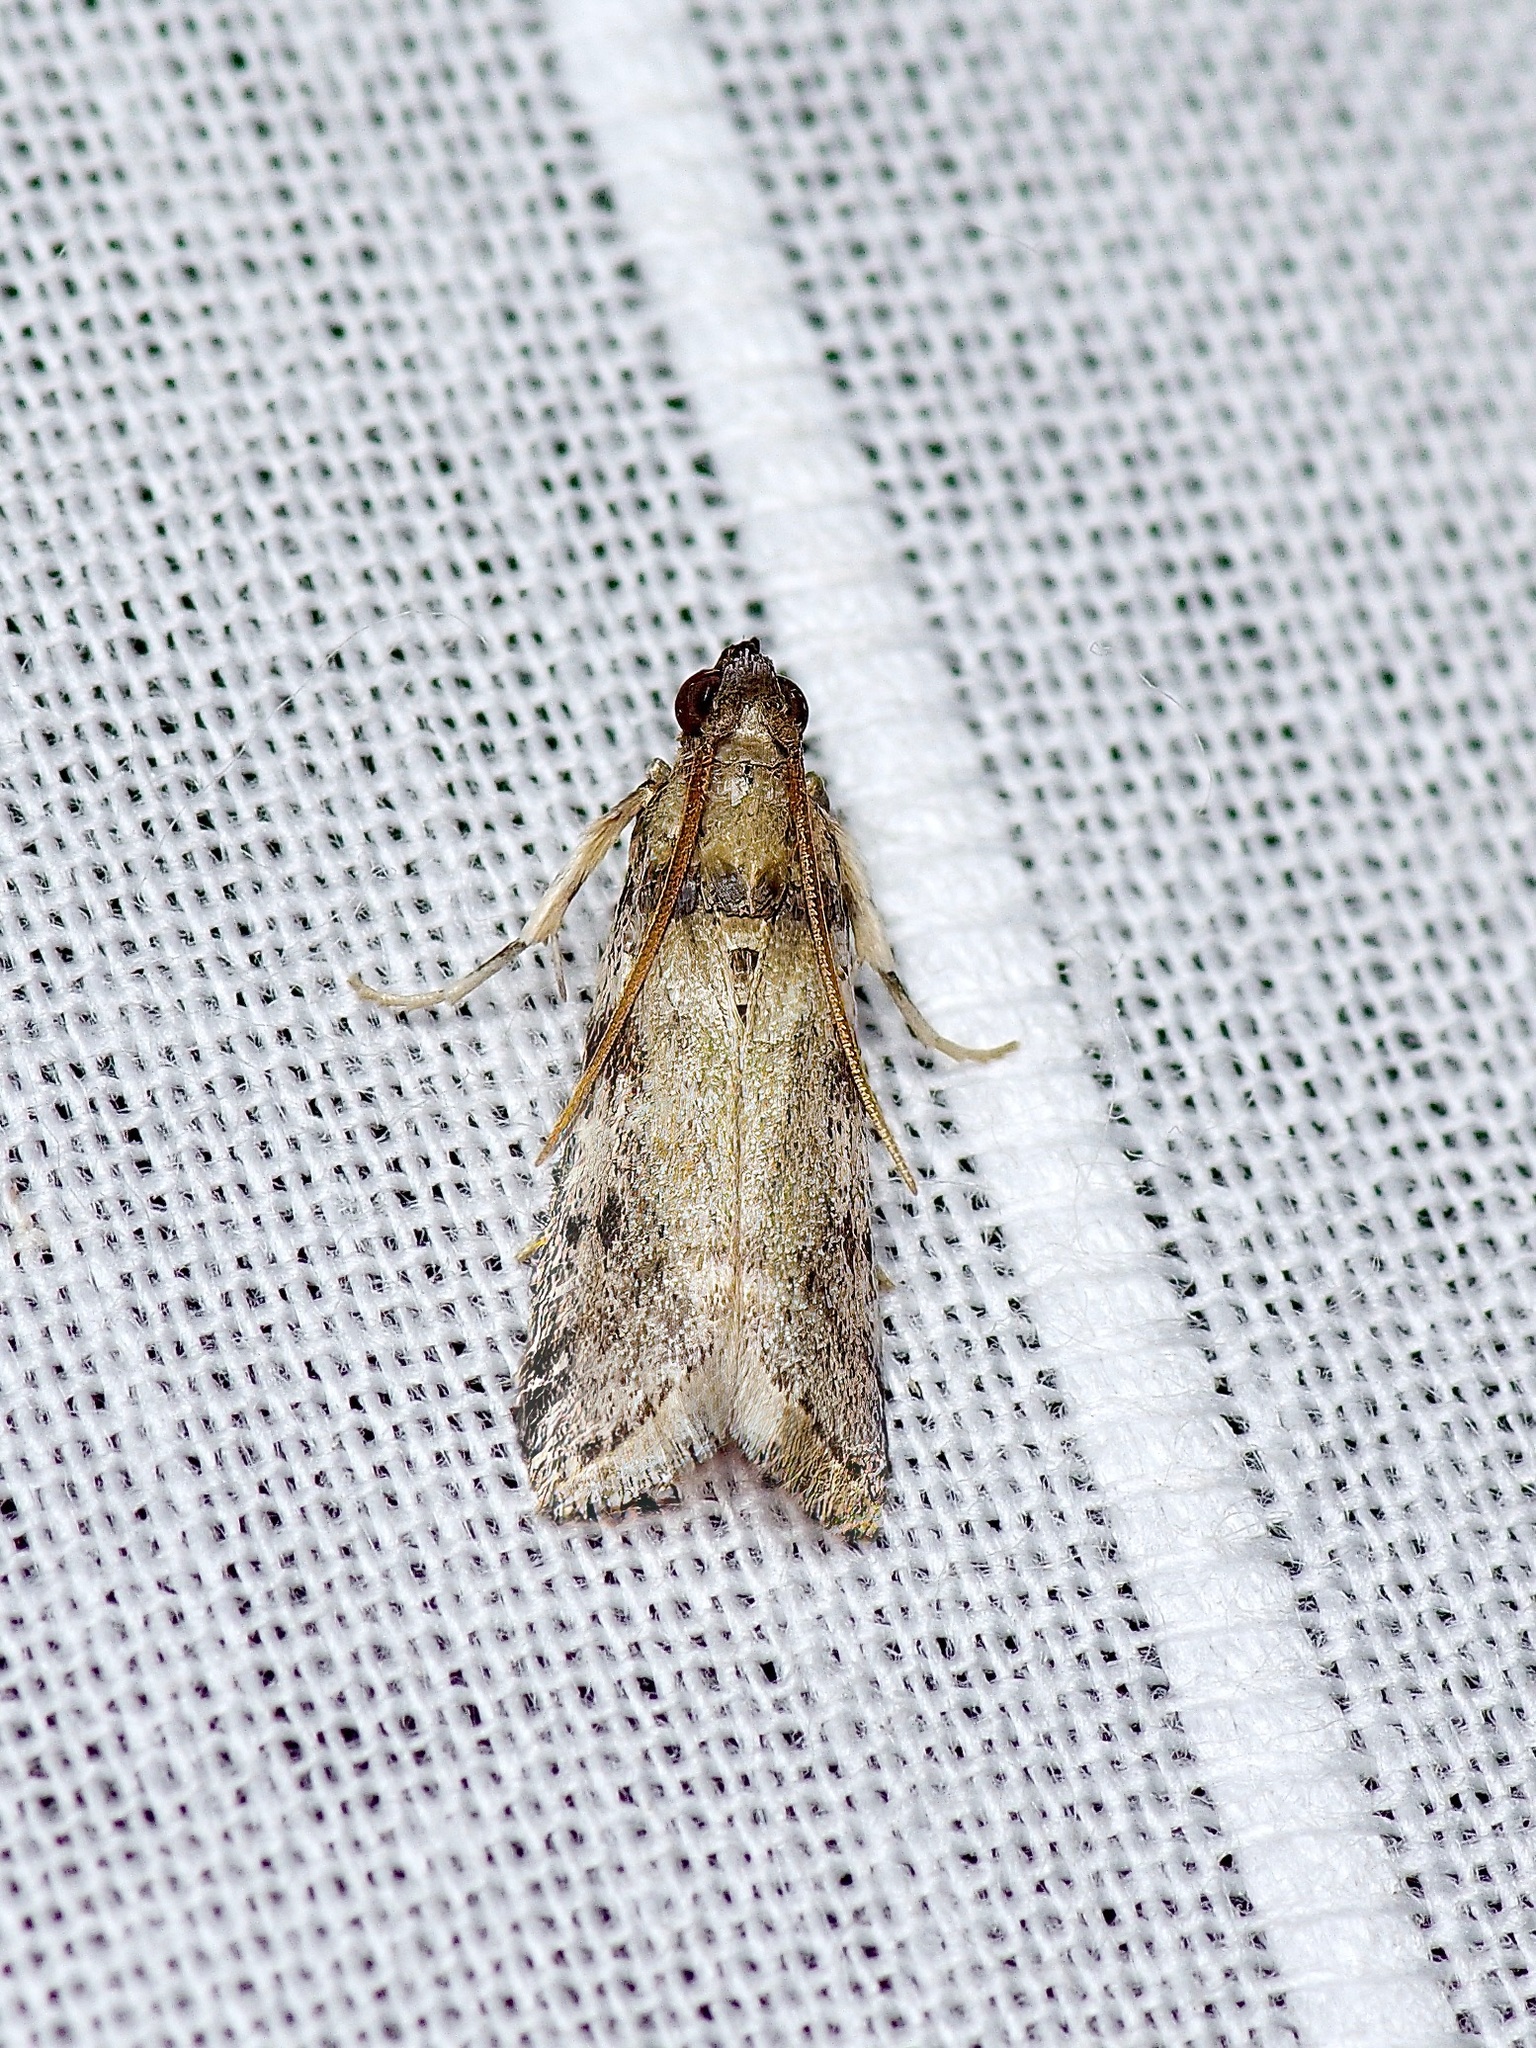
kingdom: Animalia
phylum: Arthropoda
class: Insecta
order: Lepidoptera
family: Pyralidae
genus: Vitula
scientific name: Vitula
